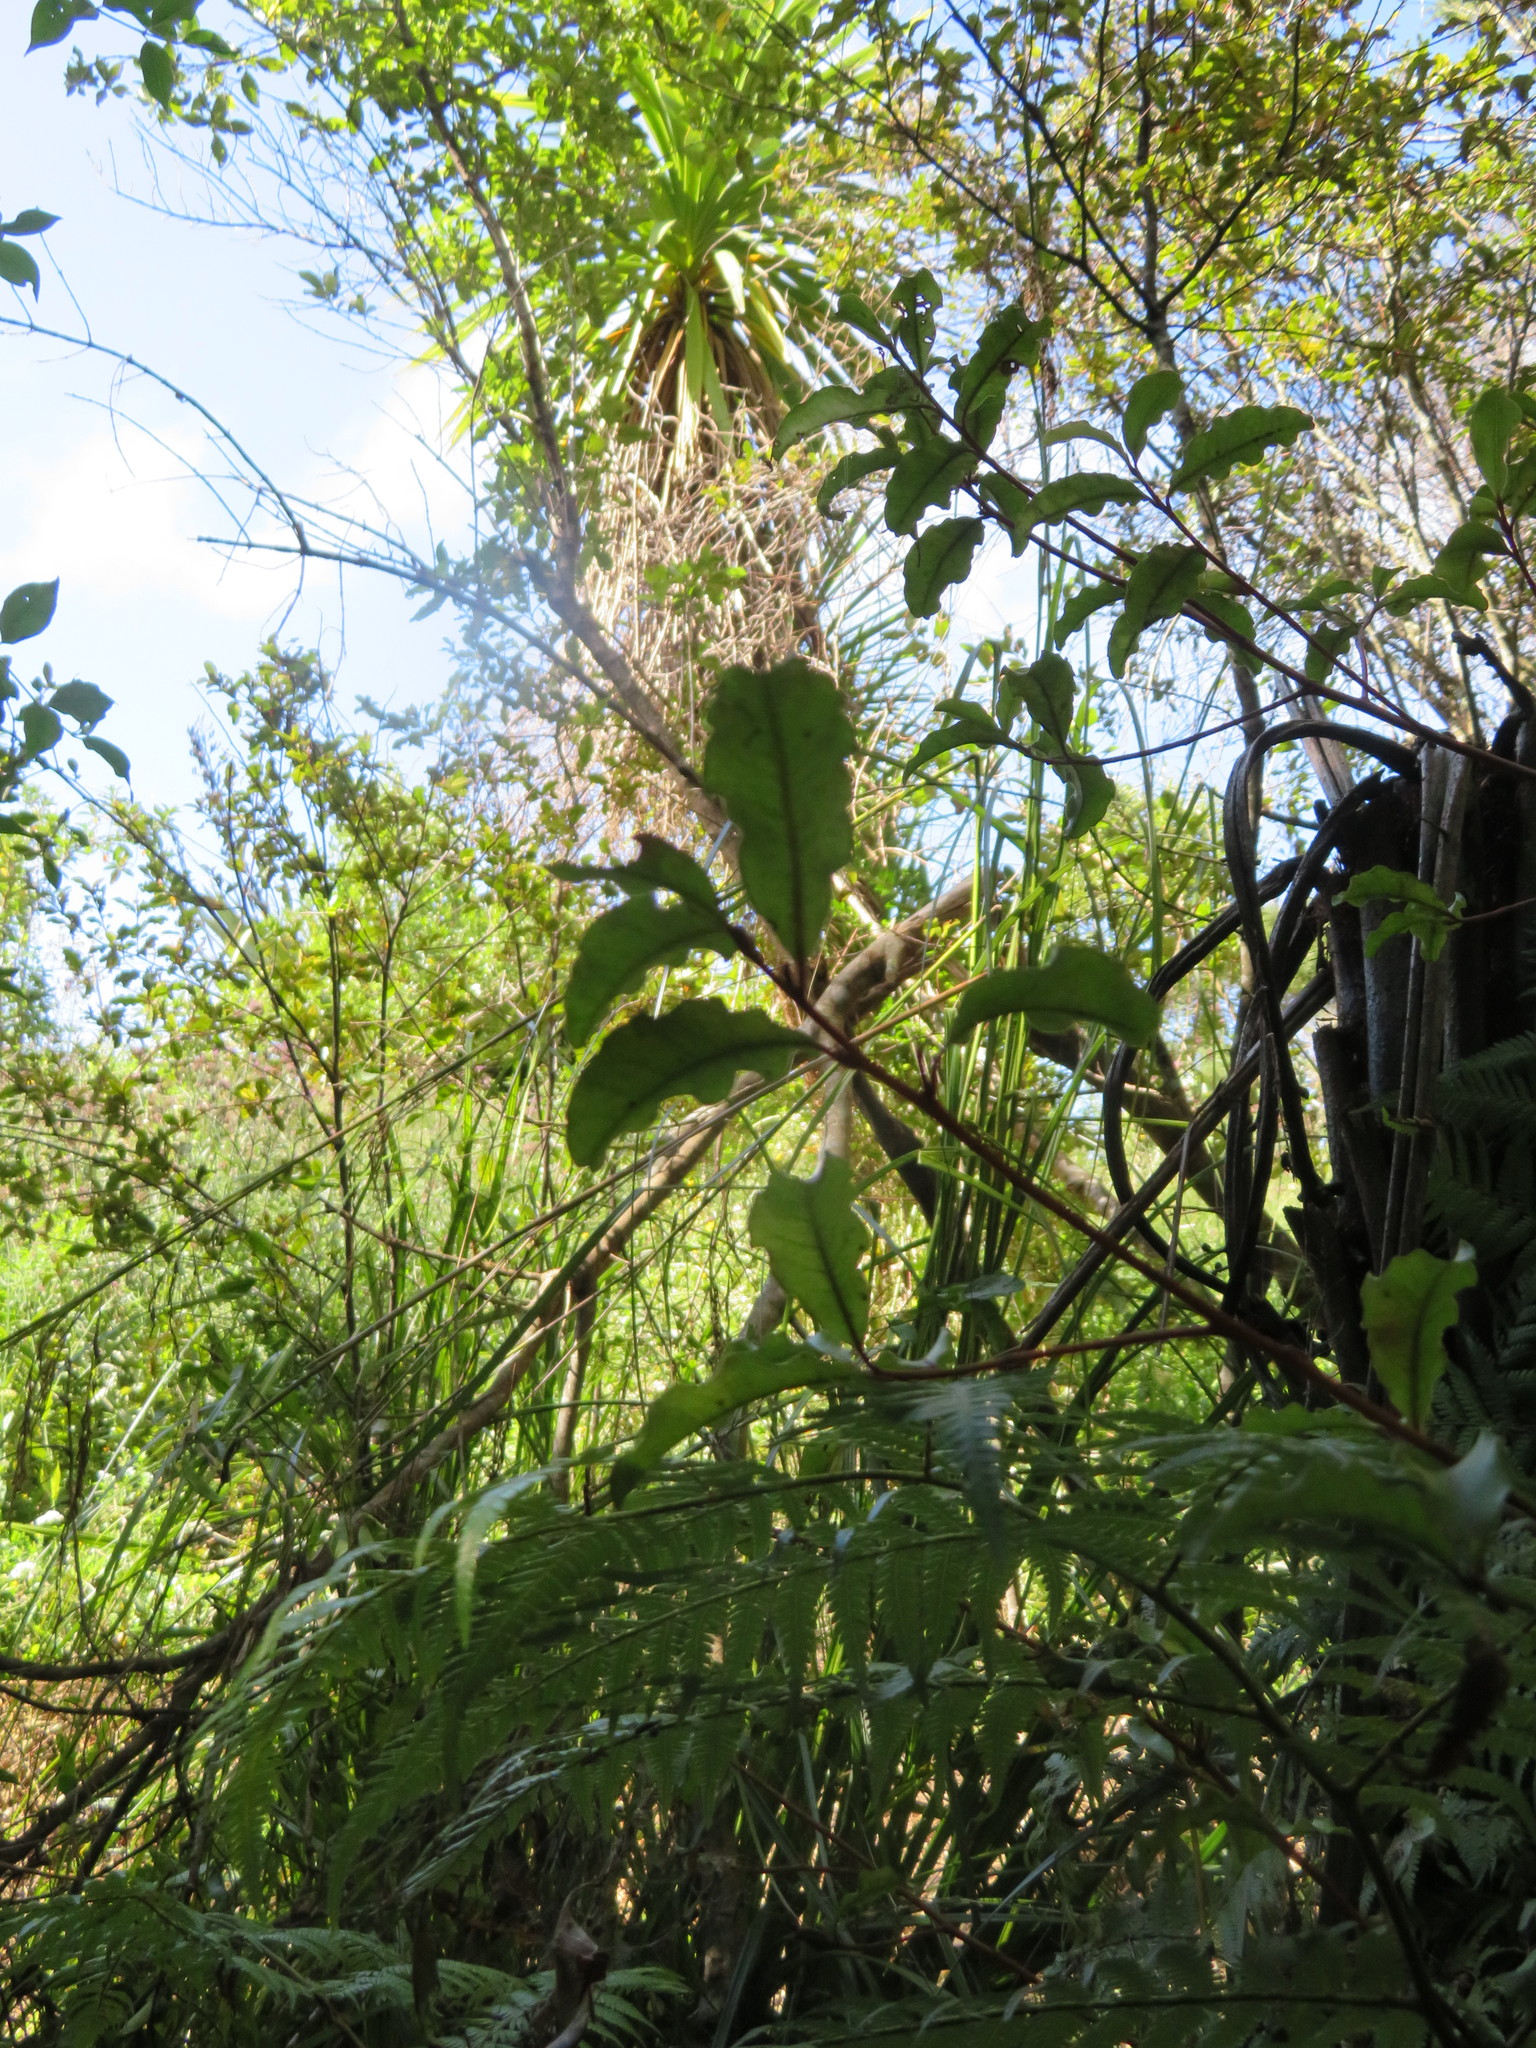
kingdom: Plantae
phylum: Tracheophyta
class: Magnoliopsida
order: Ericales
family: Primulaceae
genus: Myrsine
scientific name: Myrsine australis
